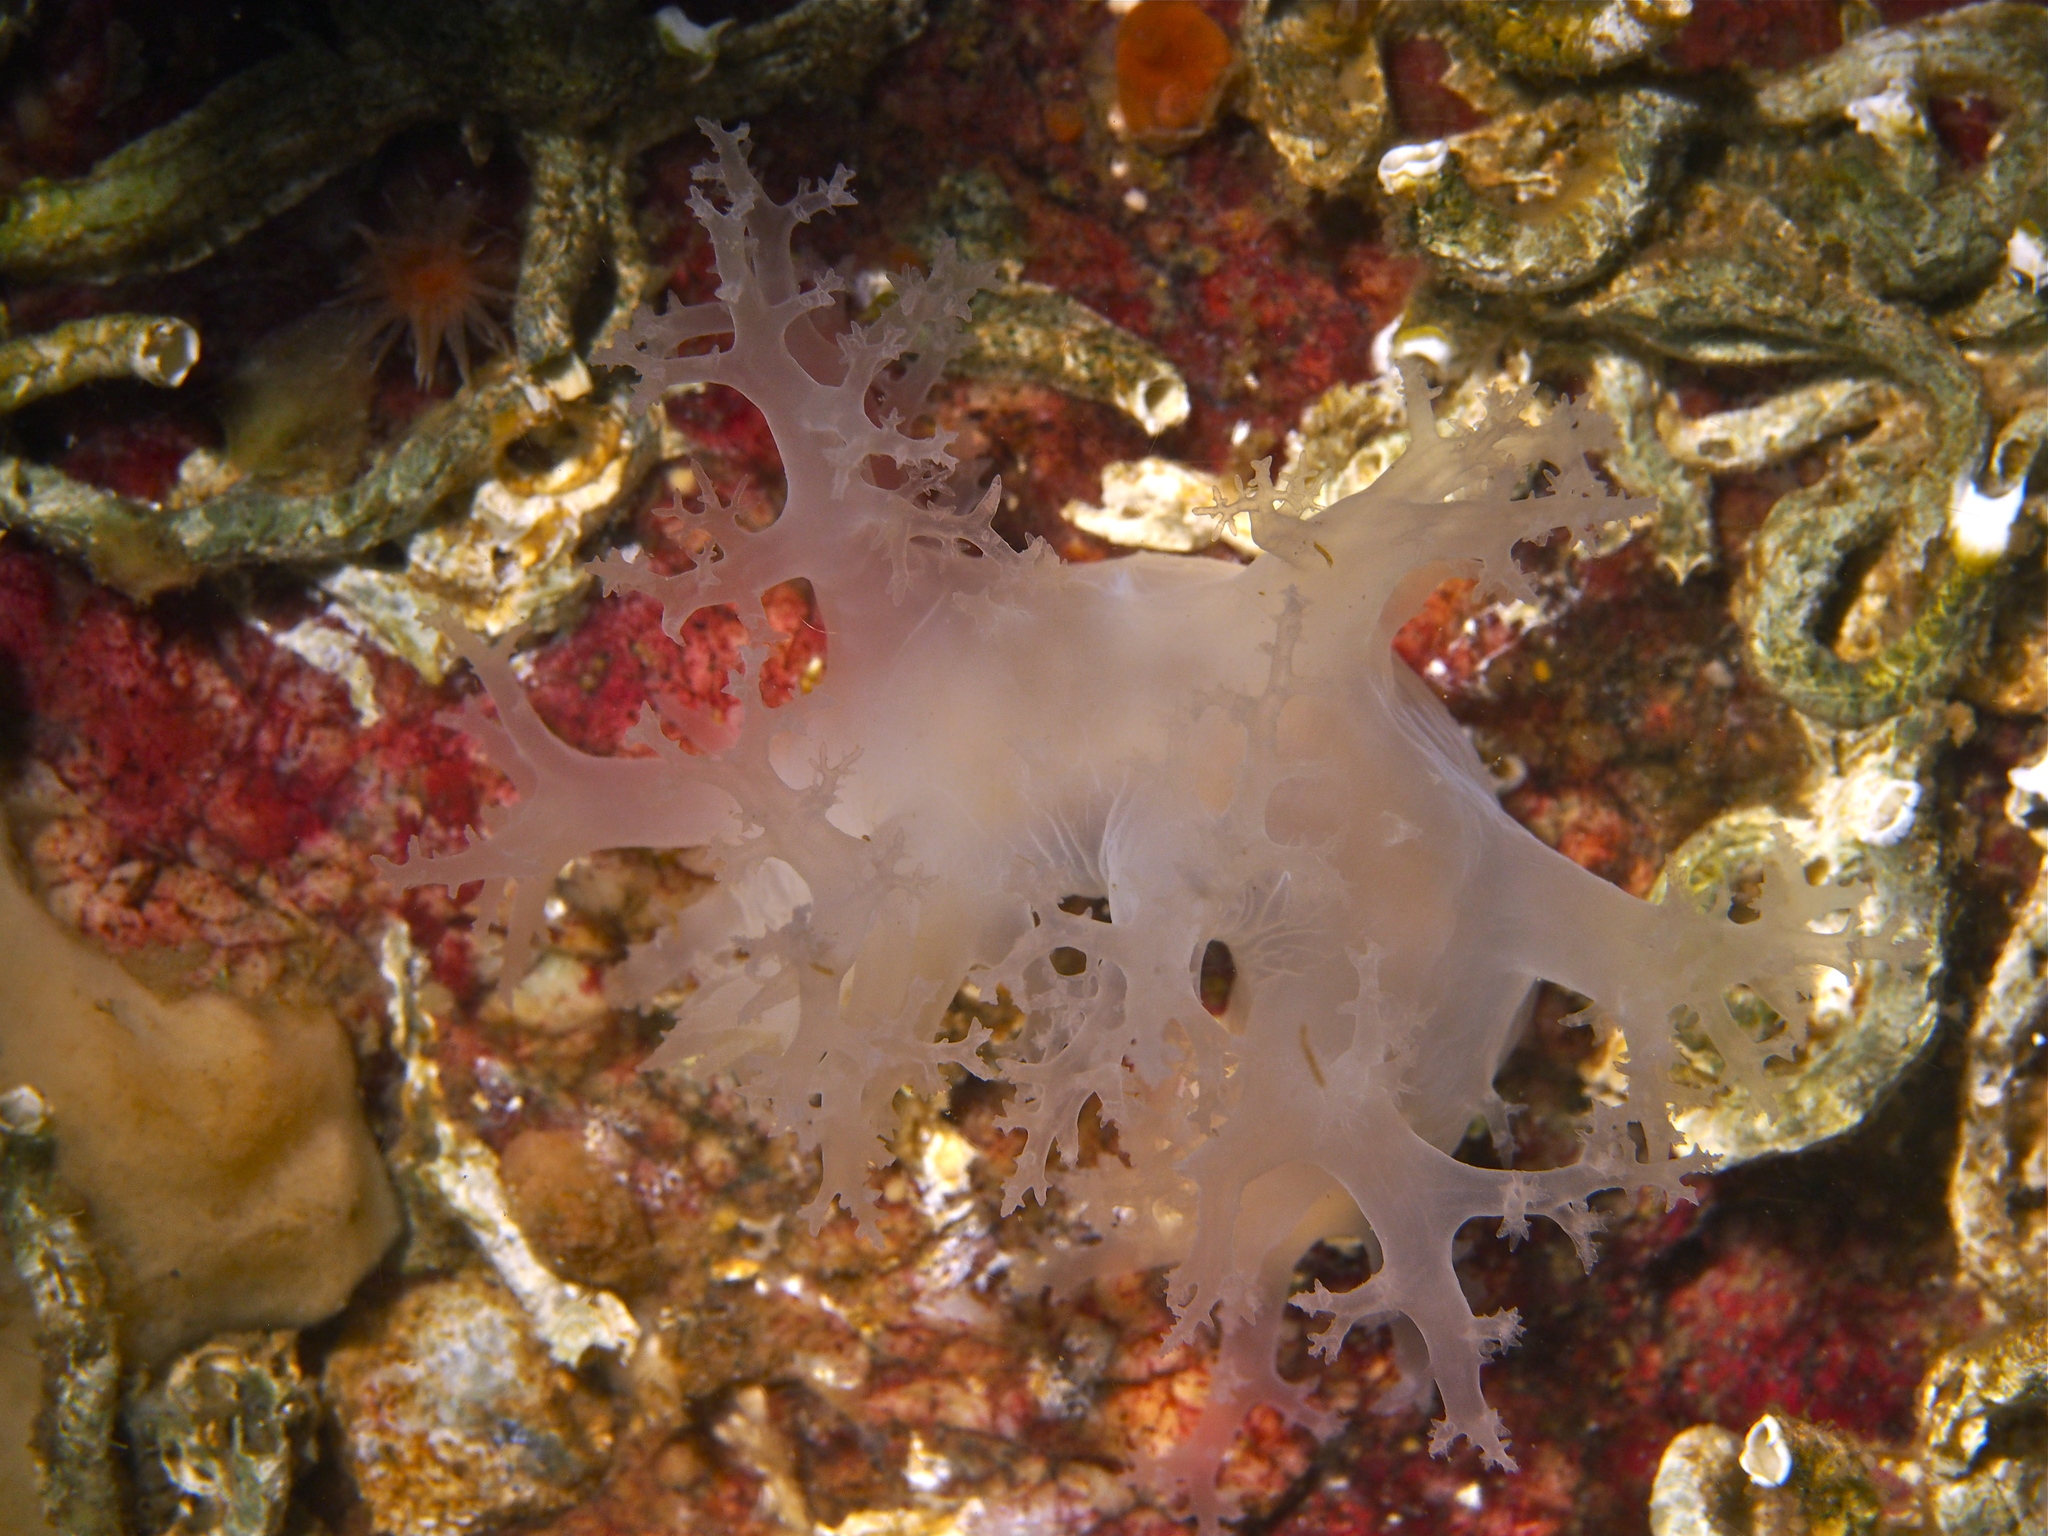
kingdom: Animalia
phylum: Mollusca
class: Gastropoda
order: Nudibranchia
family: Dendronotidae
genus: Dendronotus
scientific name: Dendronotus lacteus
